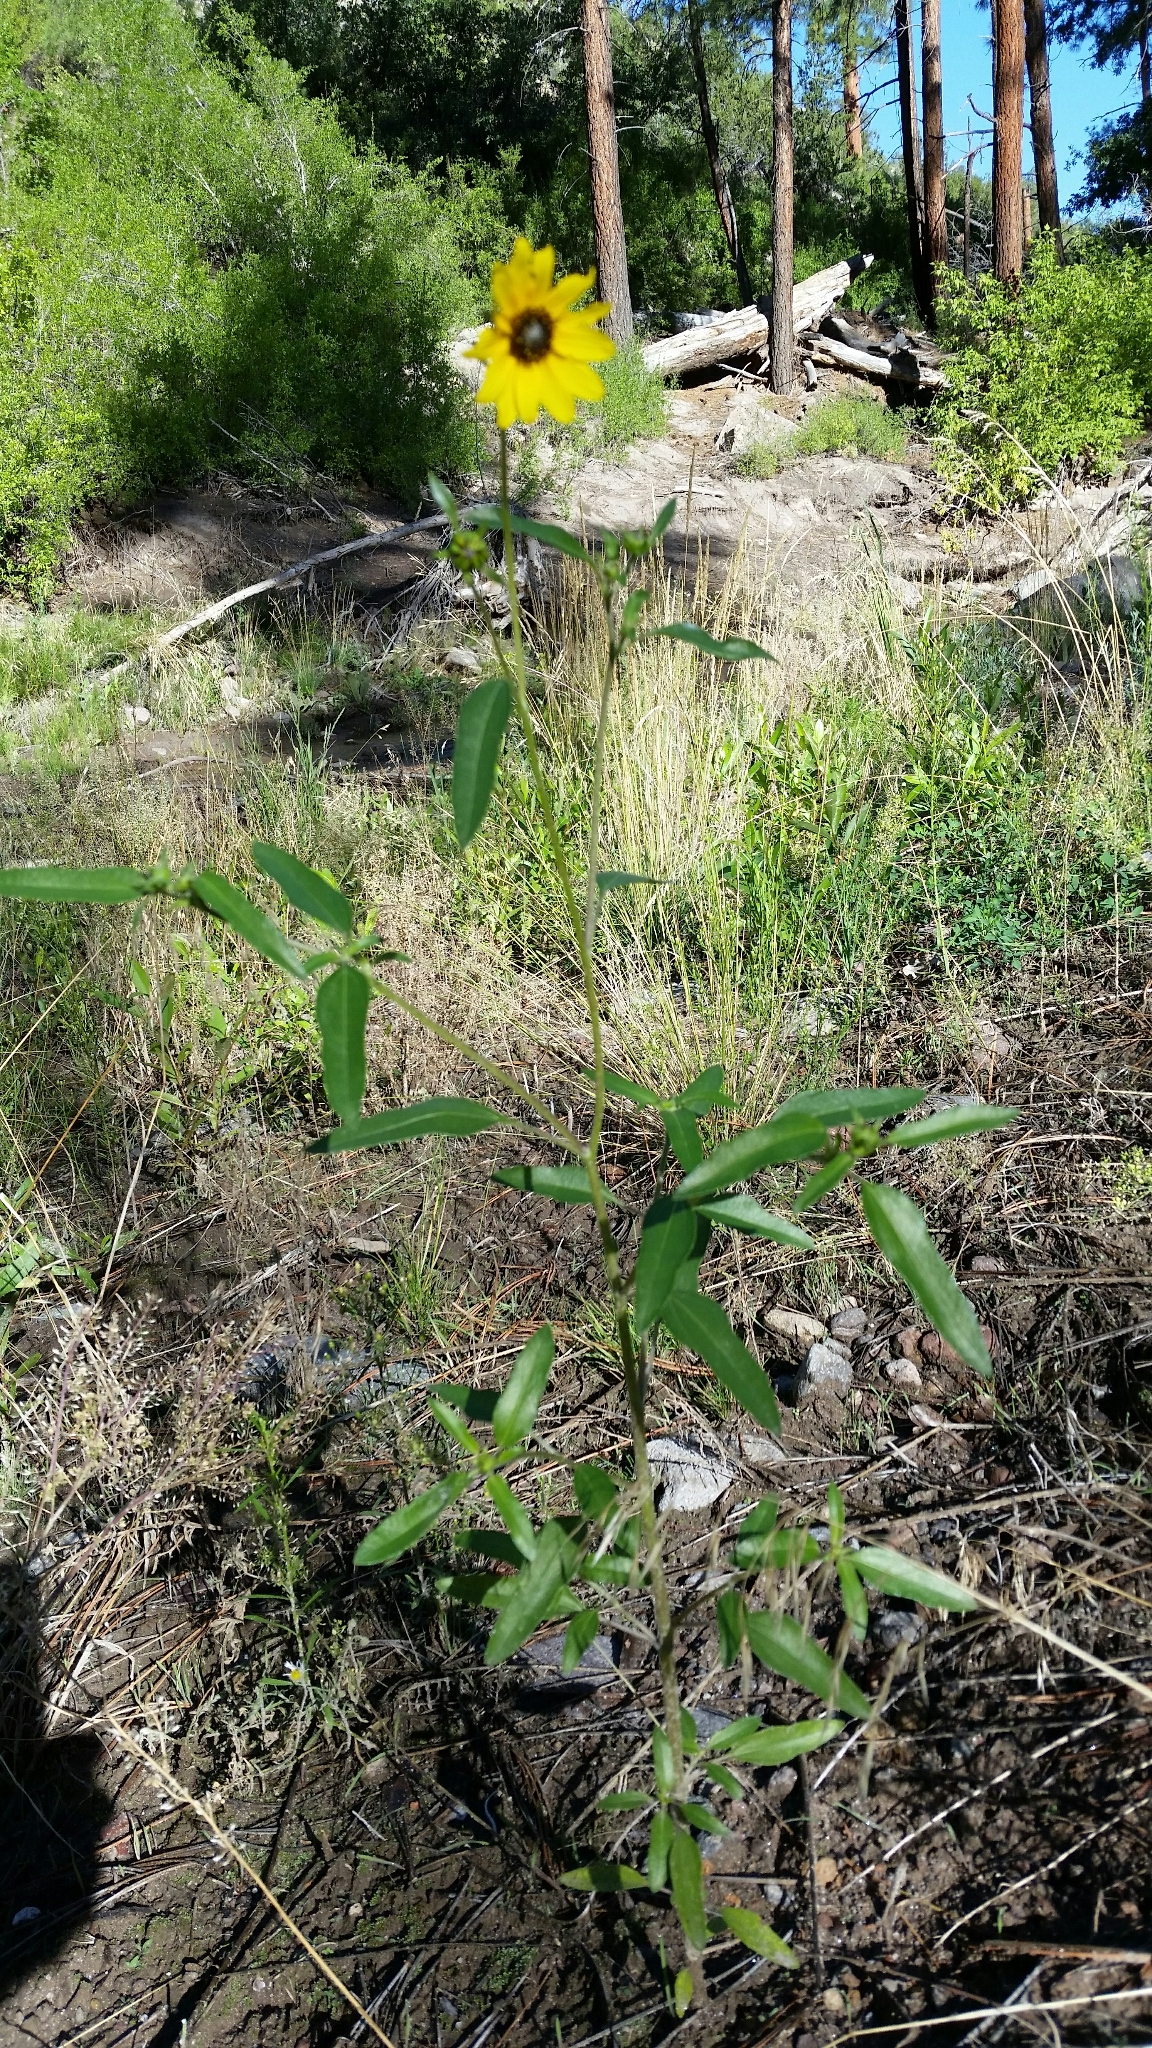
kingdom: Plantae
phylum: Tracheophyta
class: Magnoliopsida
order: Asterales
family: Asteraceae
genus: Helianthus
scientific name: Helianthus petiolaris
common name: Lesser sunflower
